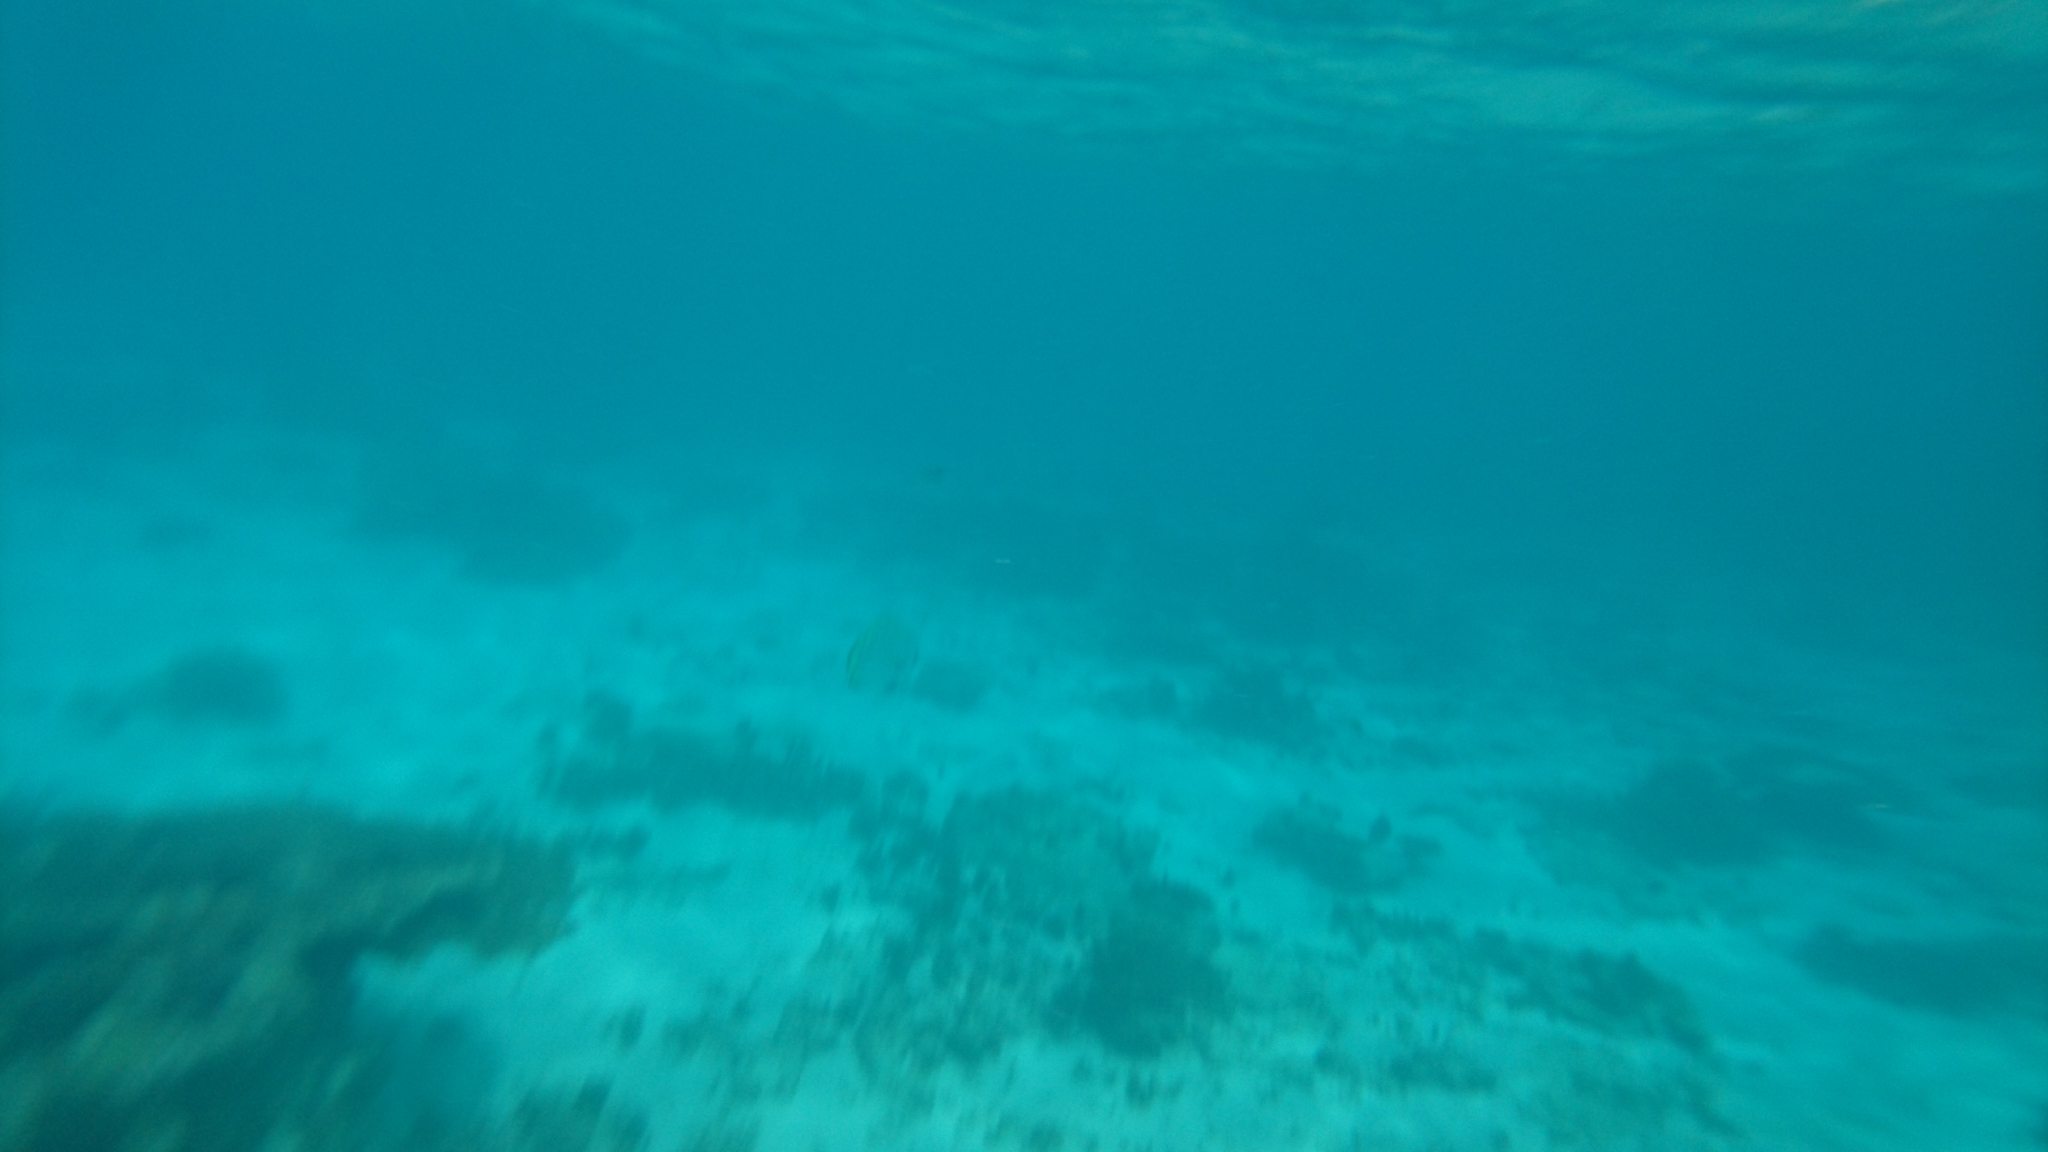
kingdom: Animalia
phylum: Chordata
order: Perciformes
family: Ephippidae
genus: Platax
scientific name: Platax orbicularis
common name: Batfish
